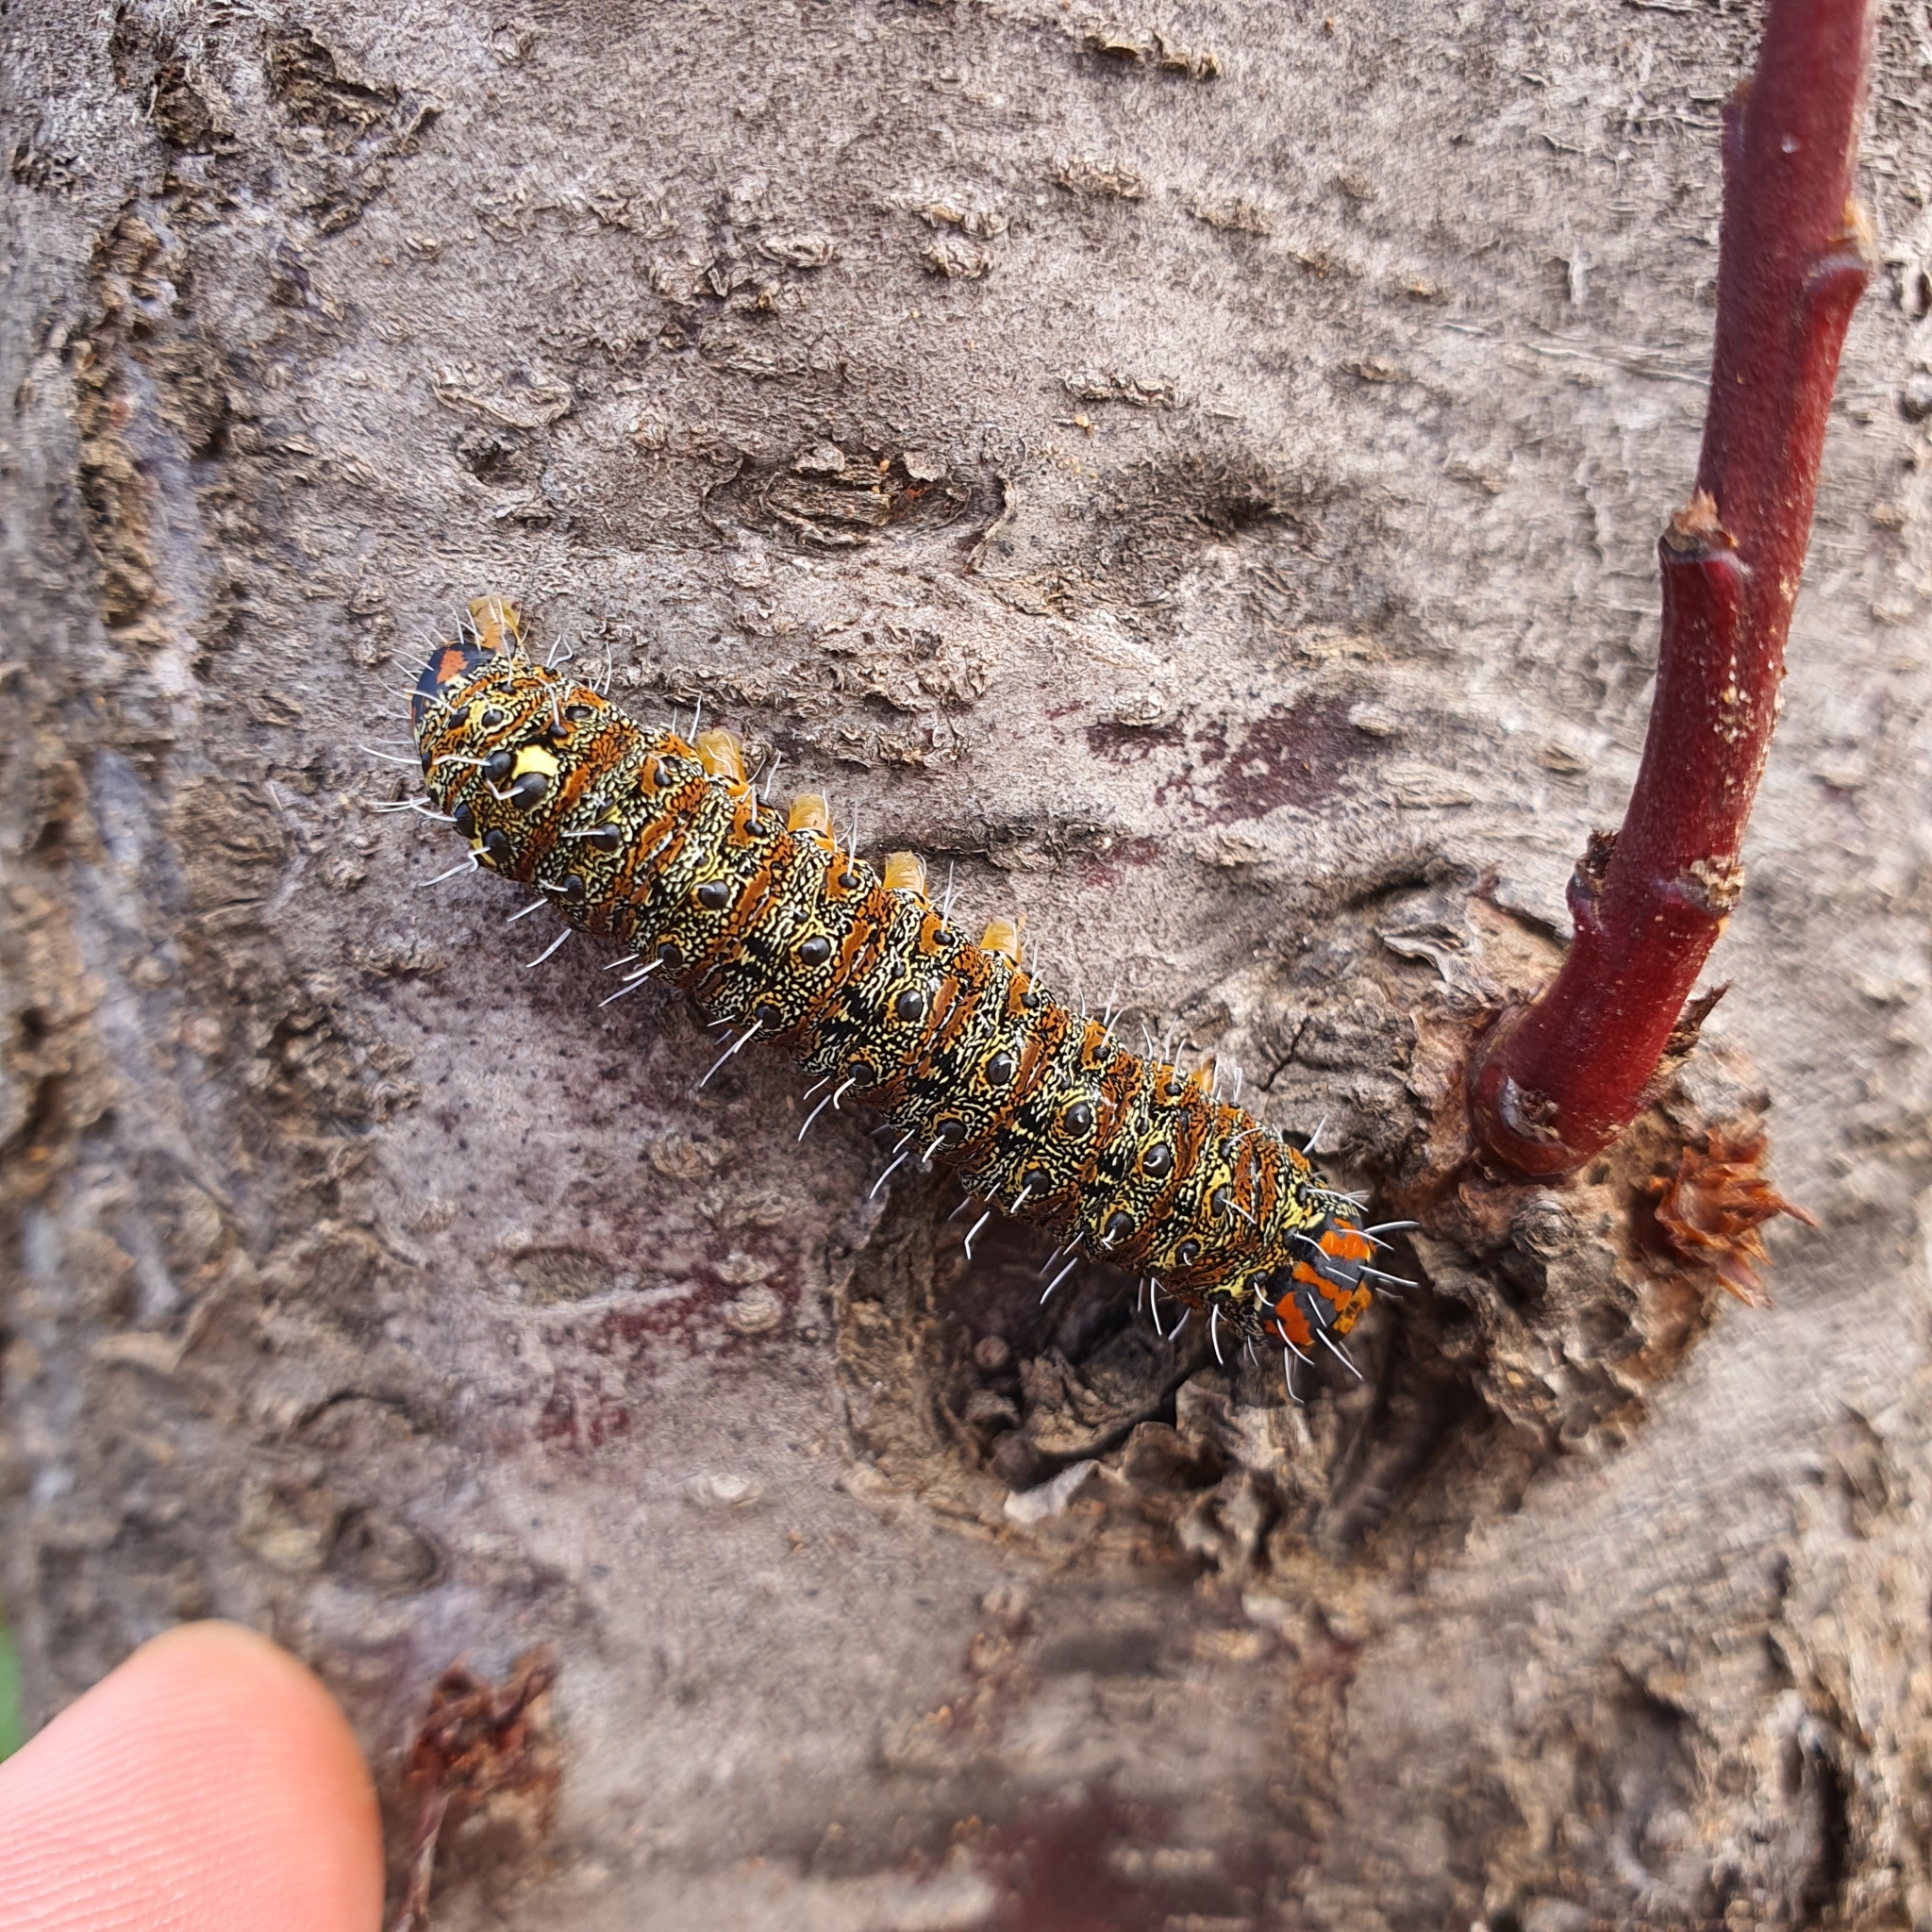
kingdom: Animalia
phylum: Arthropoda
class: Insecta
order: Lepidoptera
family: Noctuidae
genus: Apina
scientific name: Apina callisto
